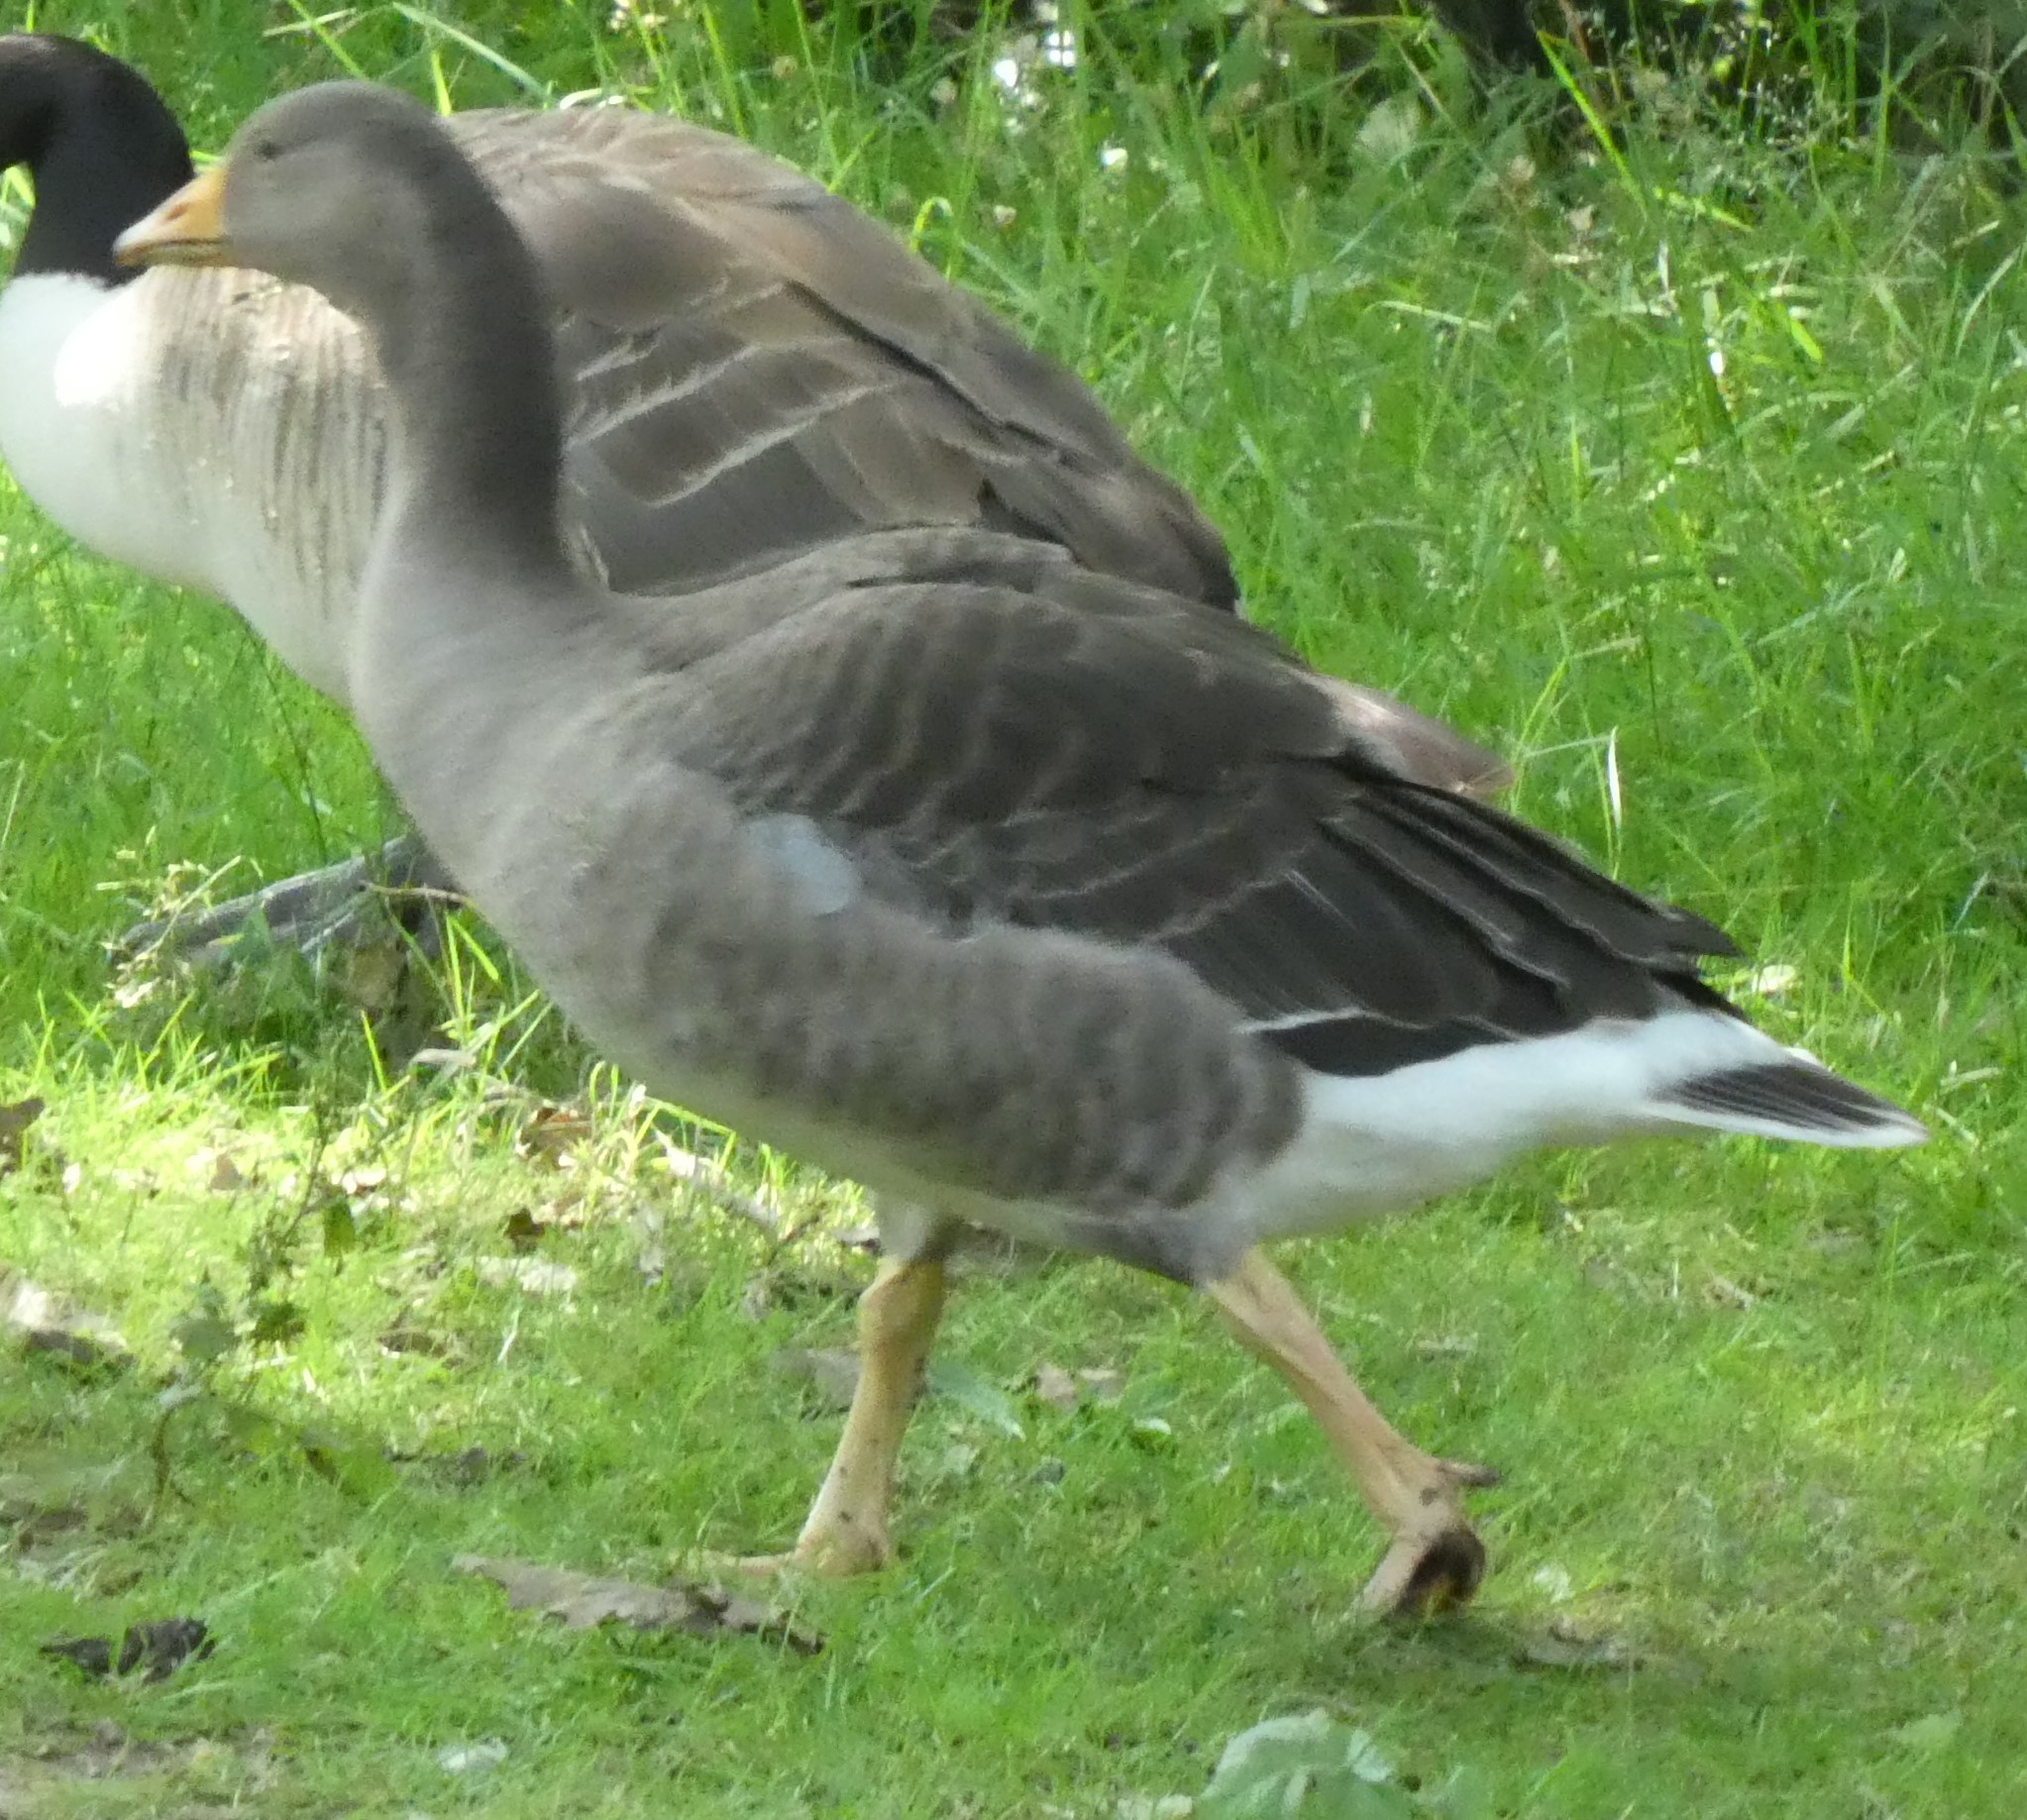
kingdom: Animalia
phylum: Chordata
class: Aves
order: Anseriformes
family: Anatidae
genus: Anser
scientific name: Anser anser
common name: Greylag goose
